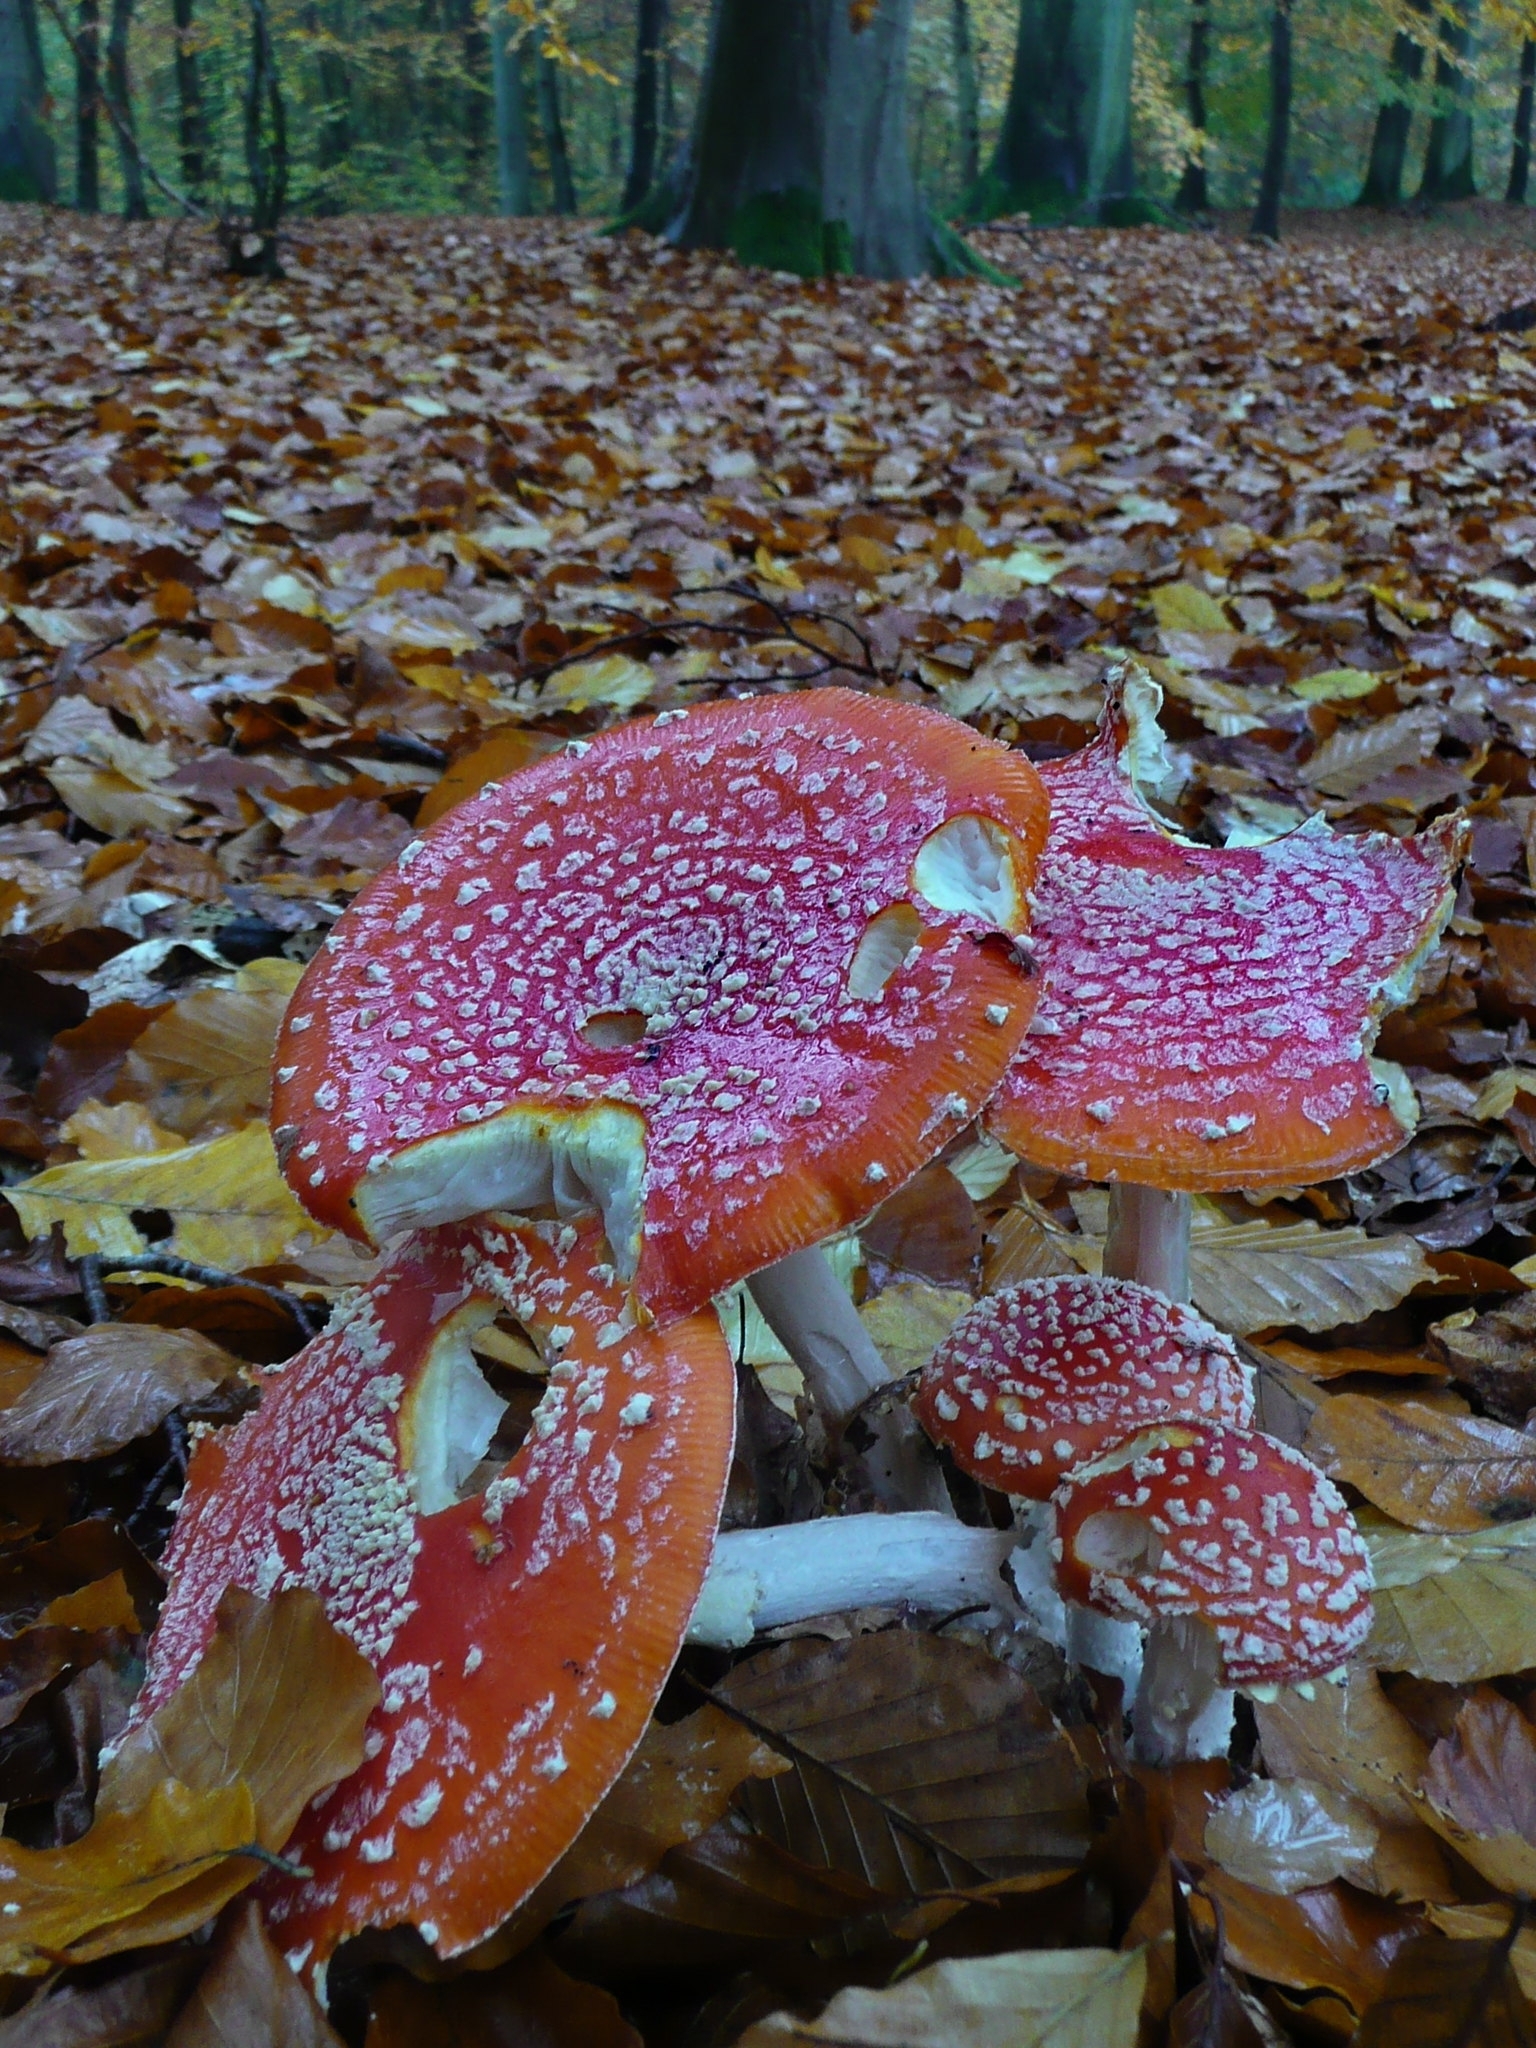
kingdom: Fungi
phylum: Basidiomycota
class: Agaricomycetes
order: Agaricales
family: Amanitaceae
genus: Amanita
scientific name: Amanita muscaria
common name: Fly agaric
